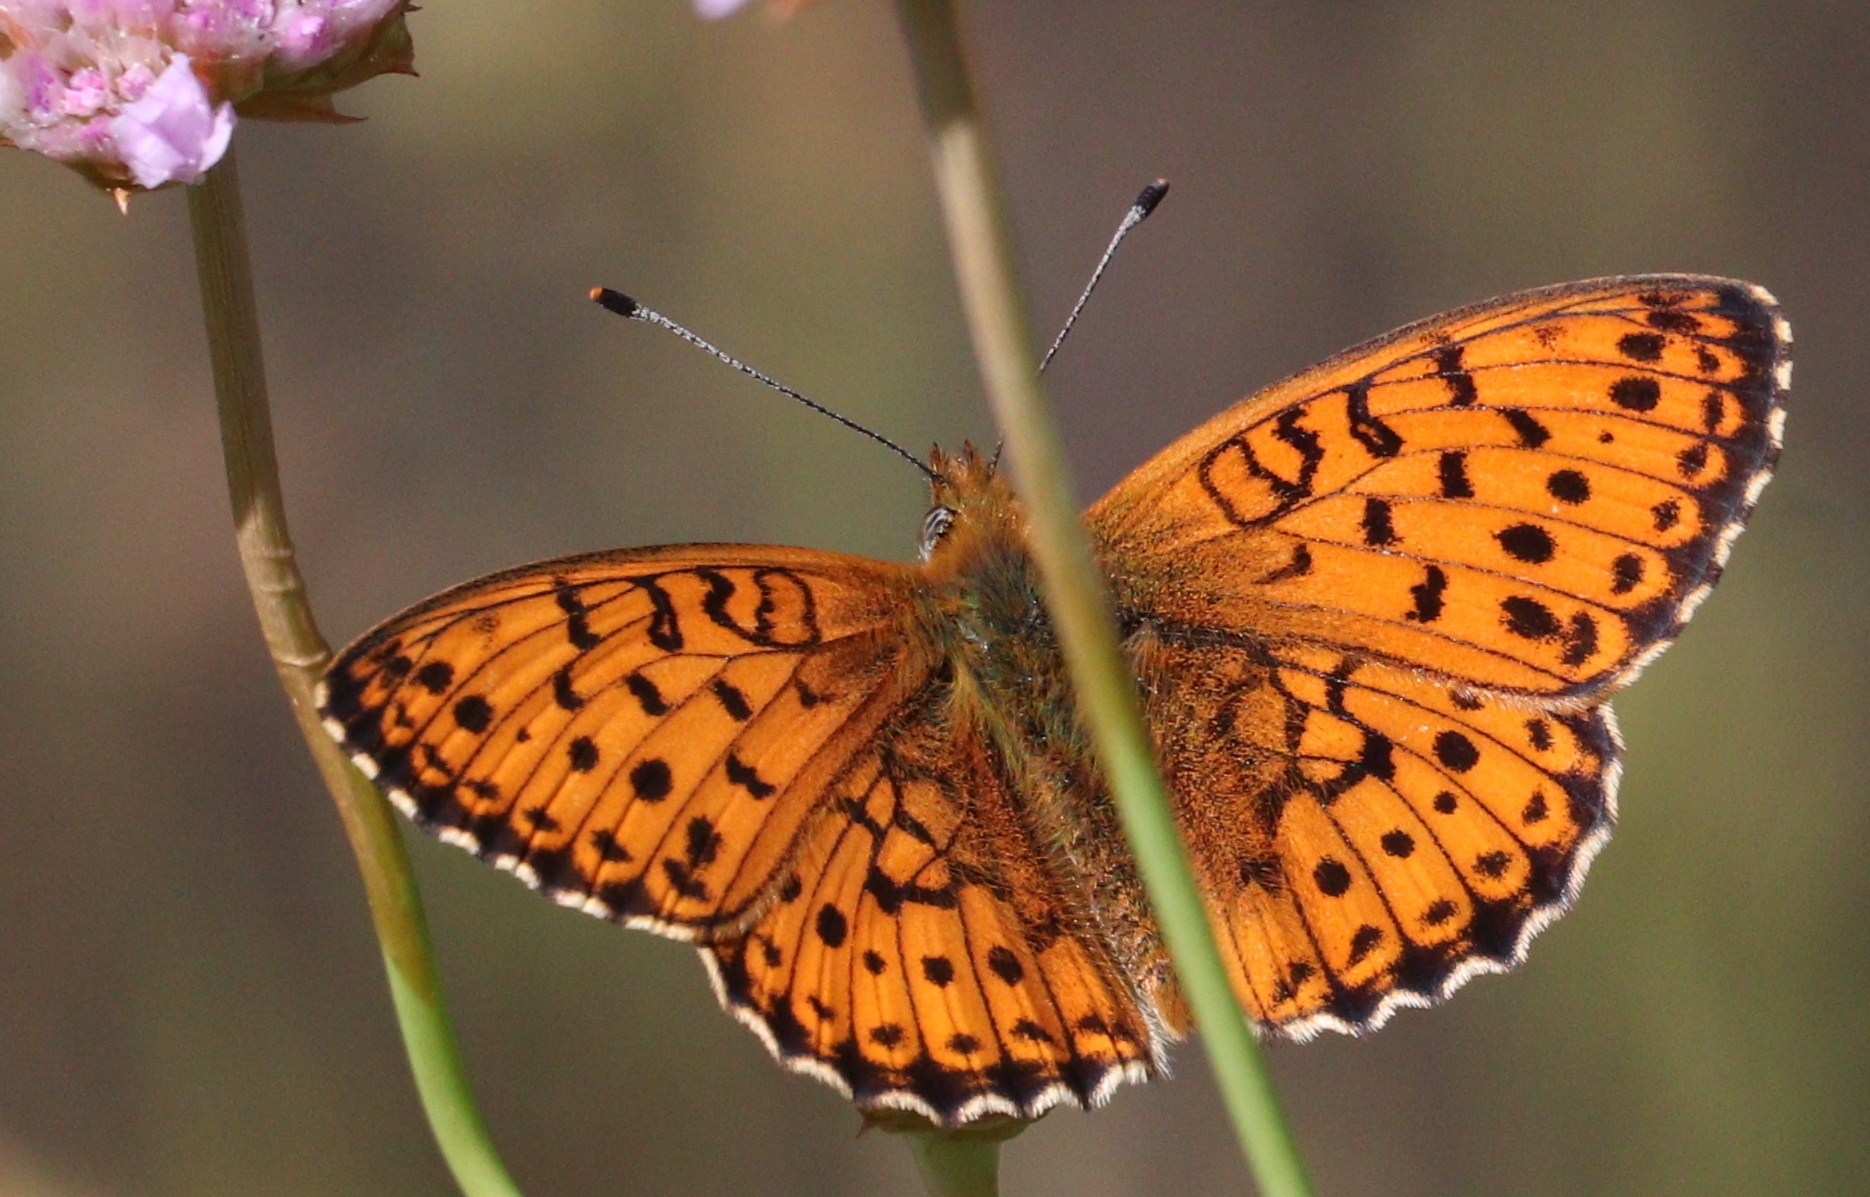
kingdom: Animalia
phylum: Arthropoda
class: Insecta
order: Lepidoptera
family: Nymphalidae
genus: Brenthis
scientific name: Brenthis ino
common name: Lesser marbled fritillary
